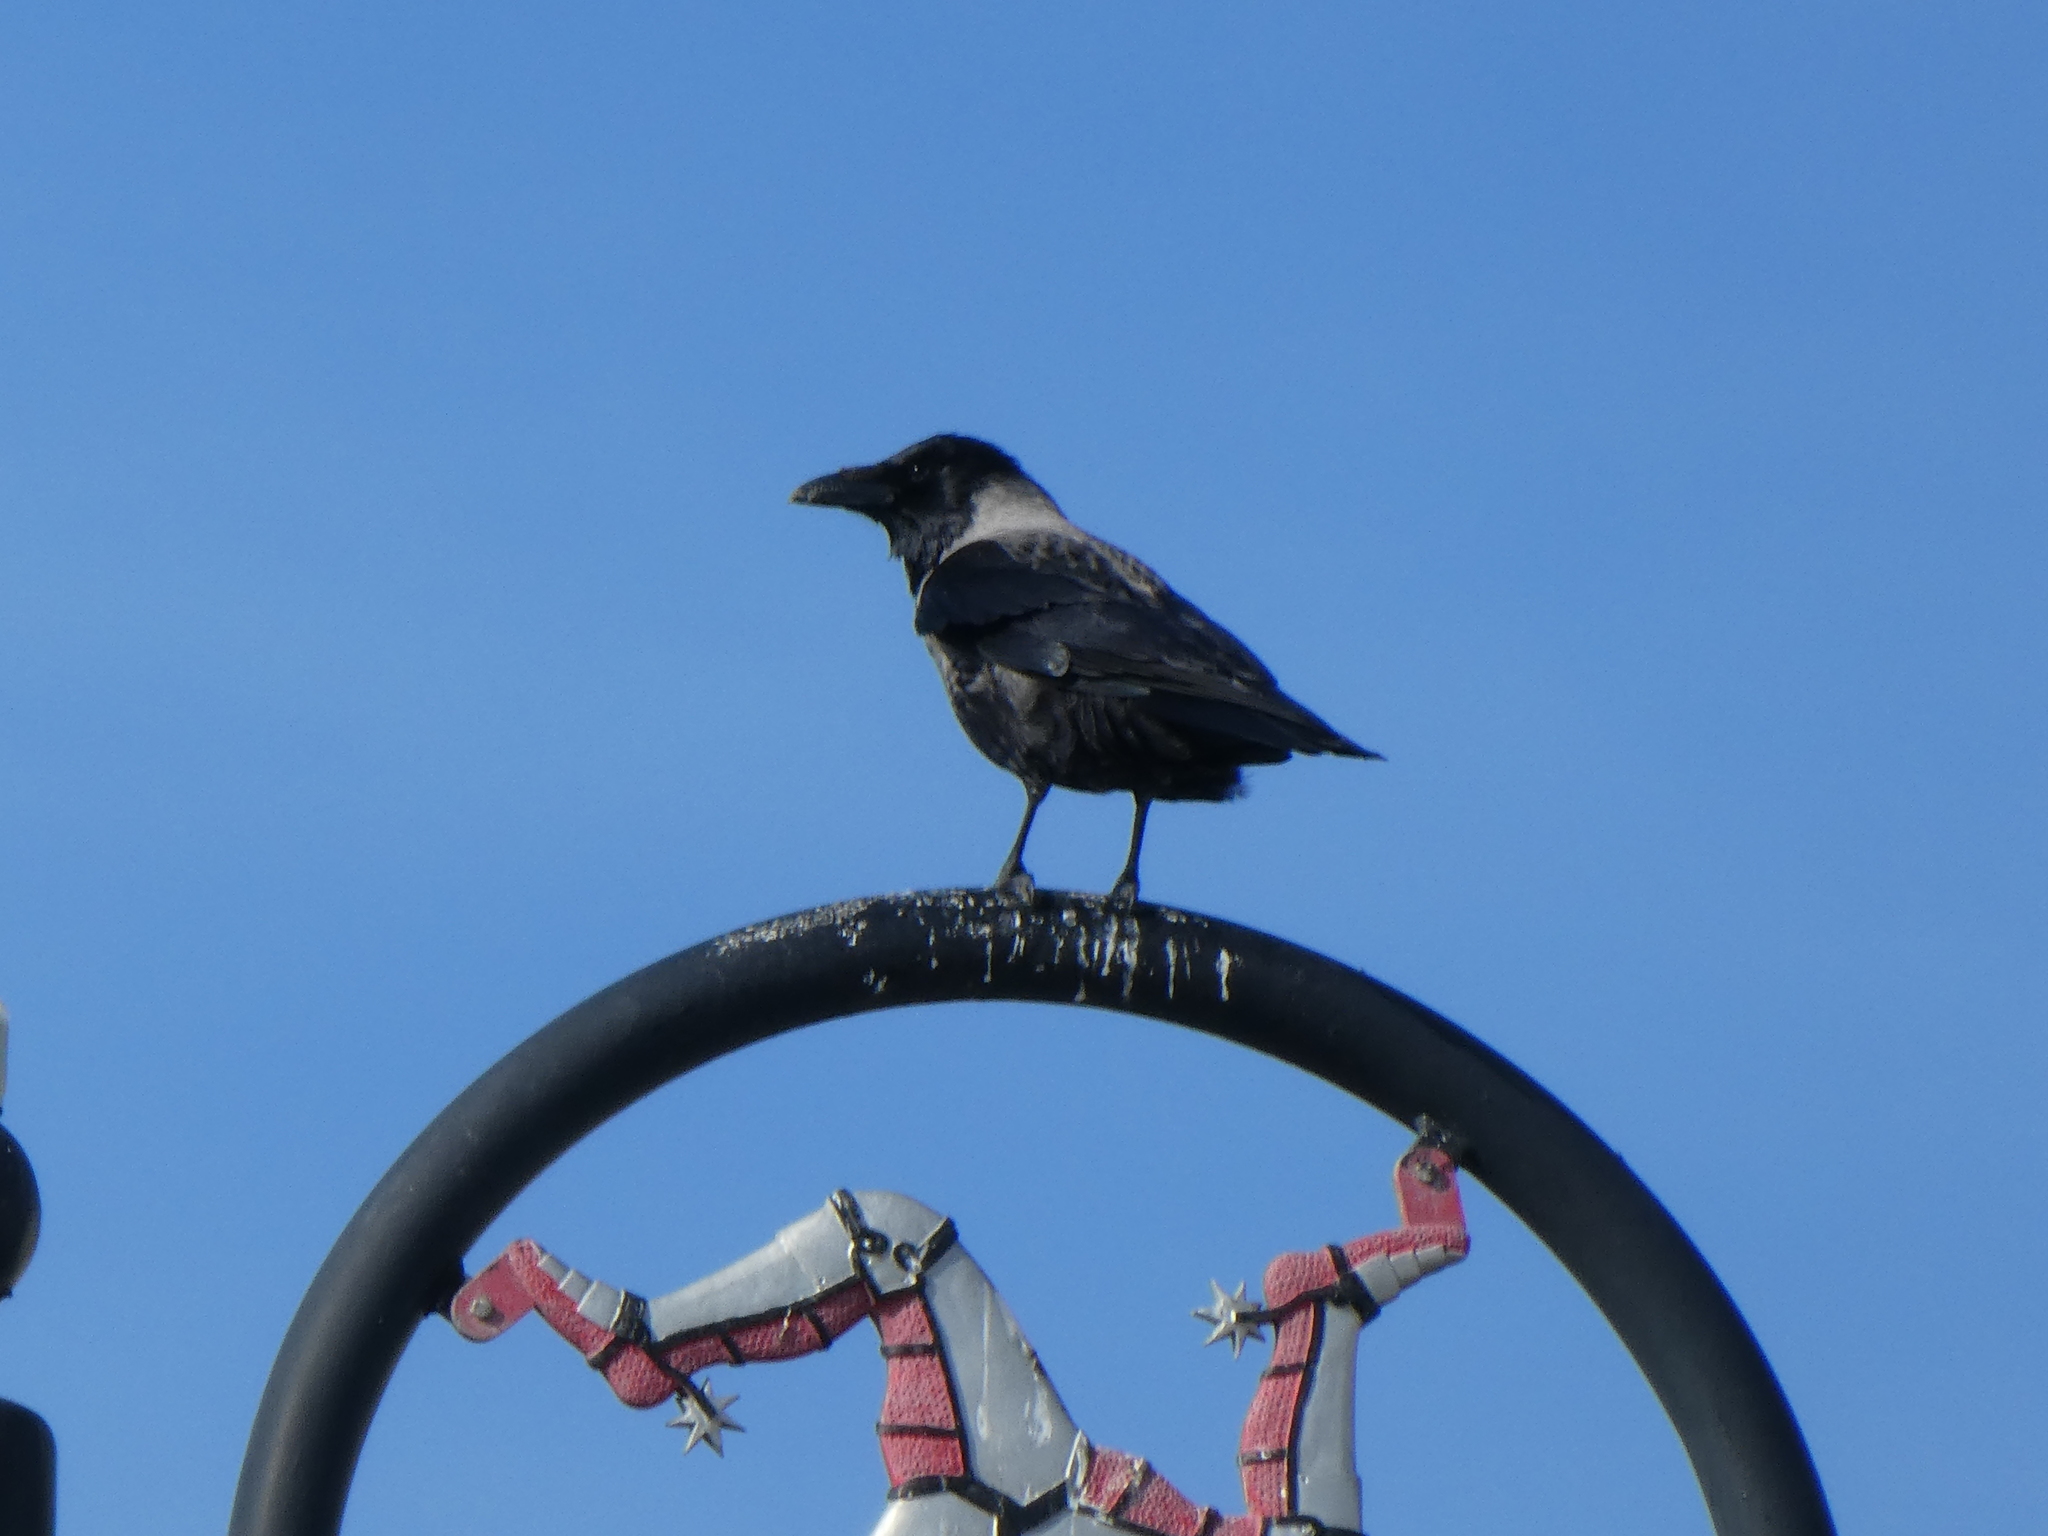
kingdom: Animalia
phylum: Chordata
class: Aves
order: Passeriformes
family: Corvidae
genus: Corvus
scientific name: Corvus
